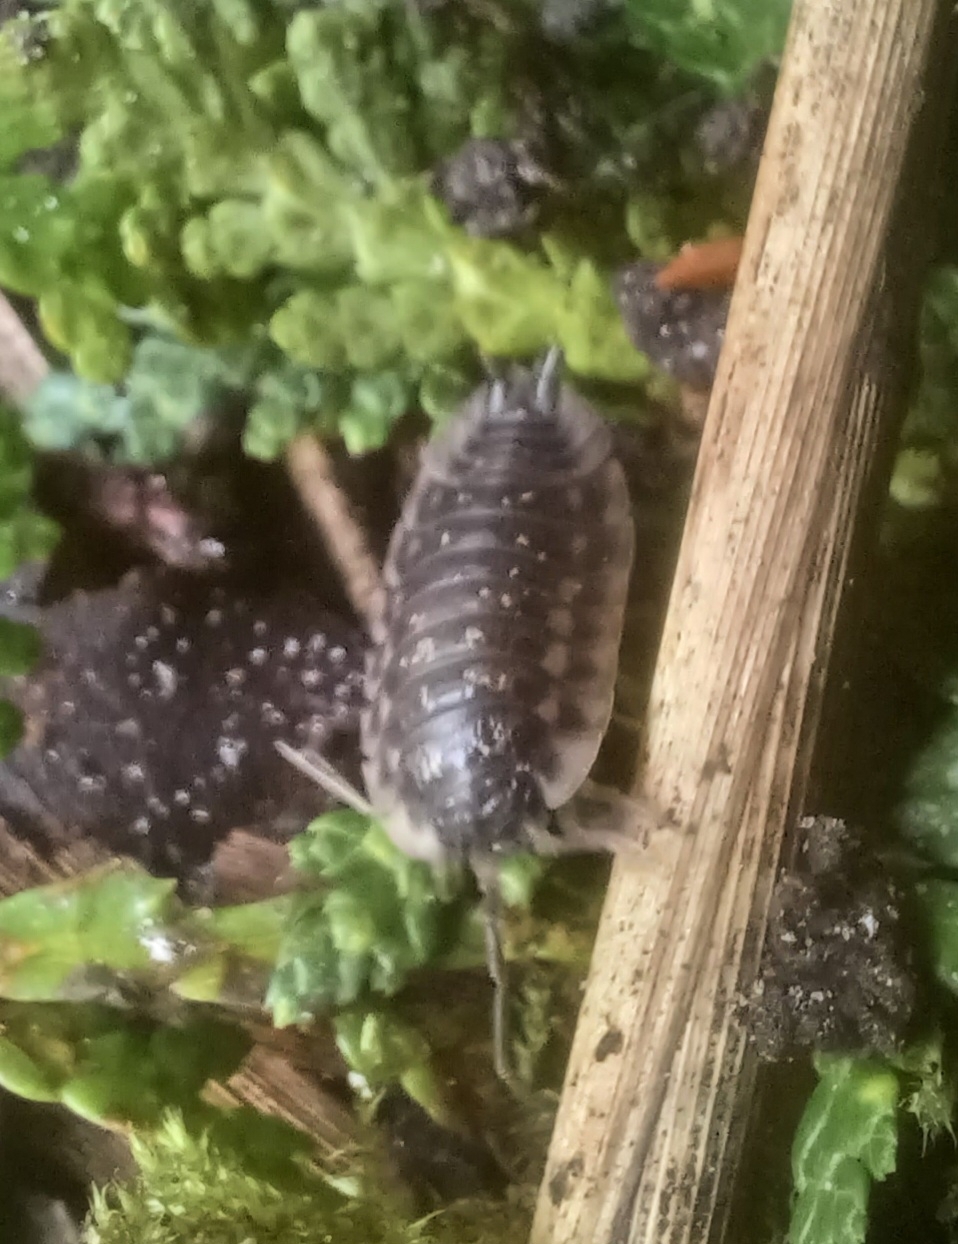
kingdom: Animalia
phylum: Arthropoda
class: Malacostraca
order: Isopoda
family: Oniscidae
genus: Oniscus
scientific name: Oniscus asellus
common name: Common shiny woodlouse
